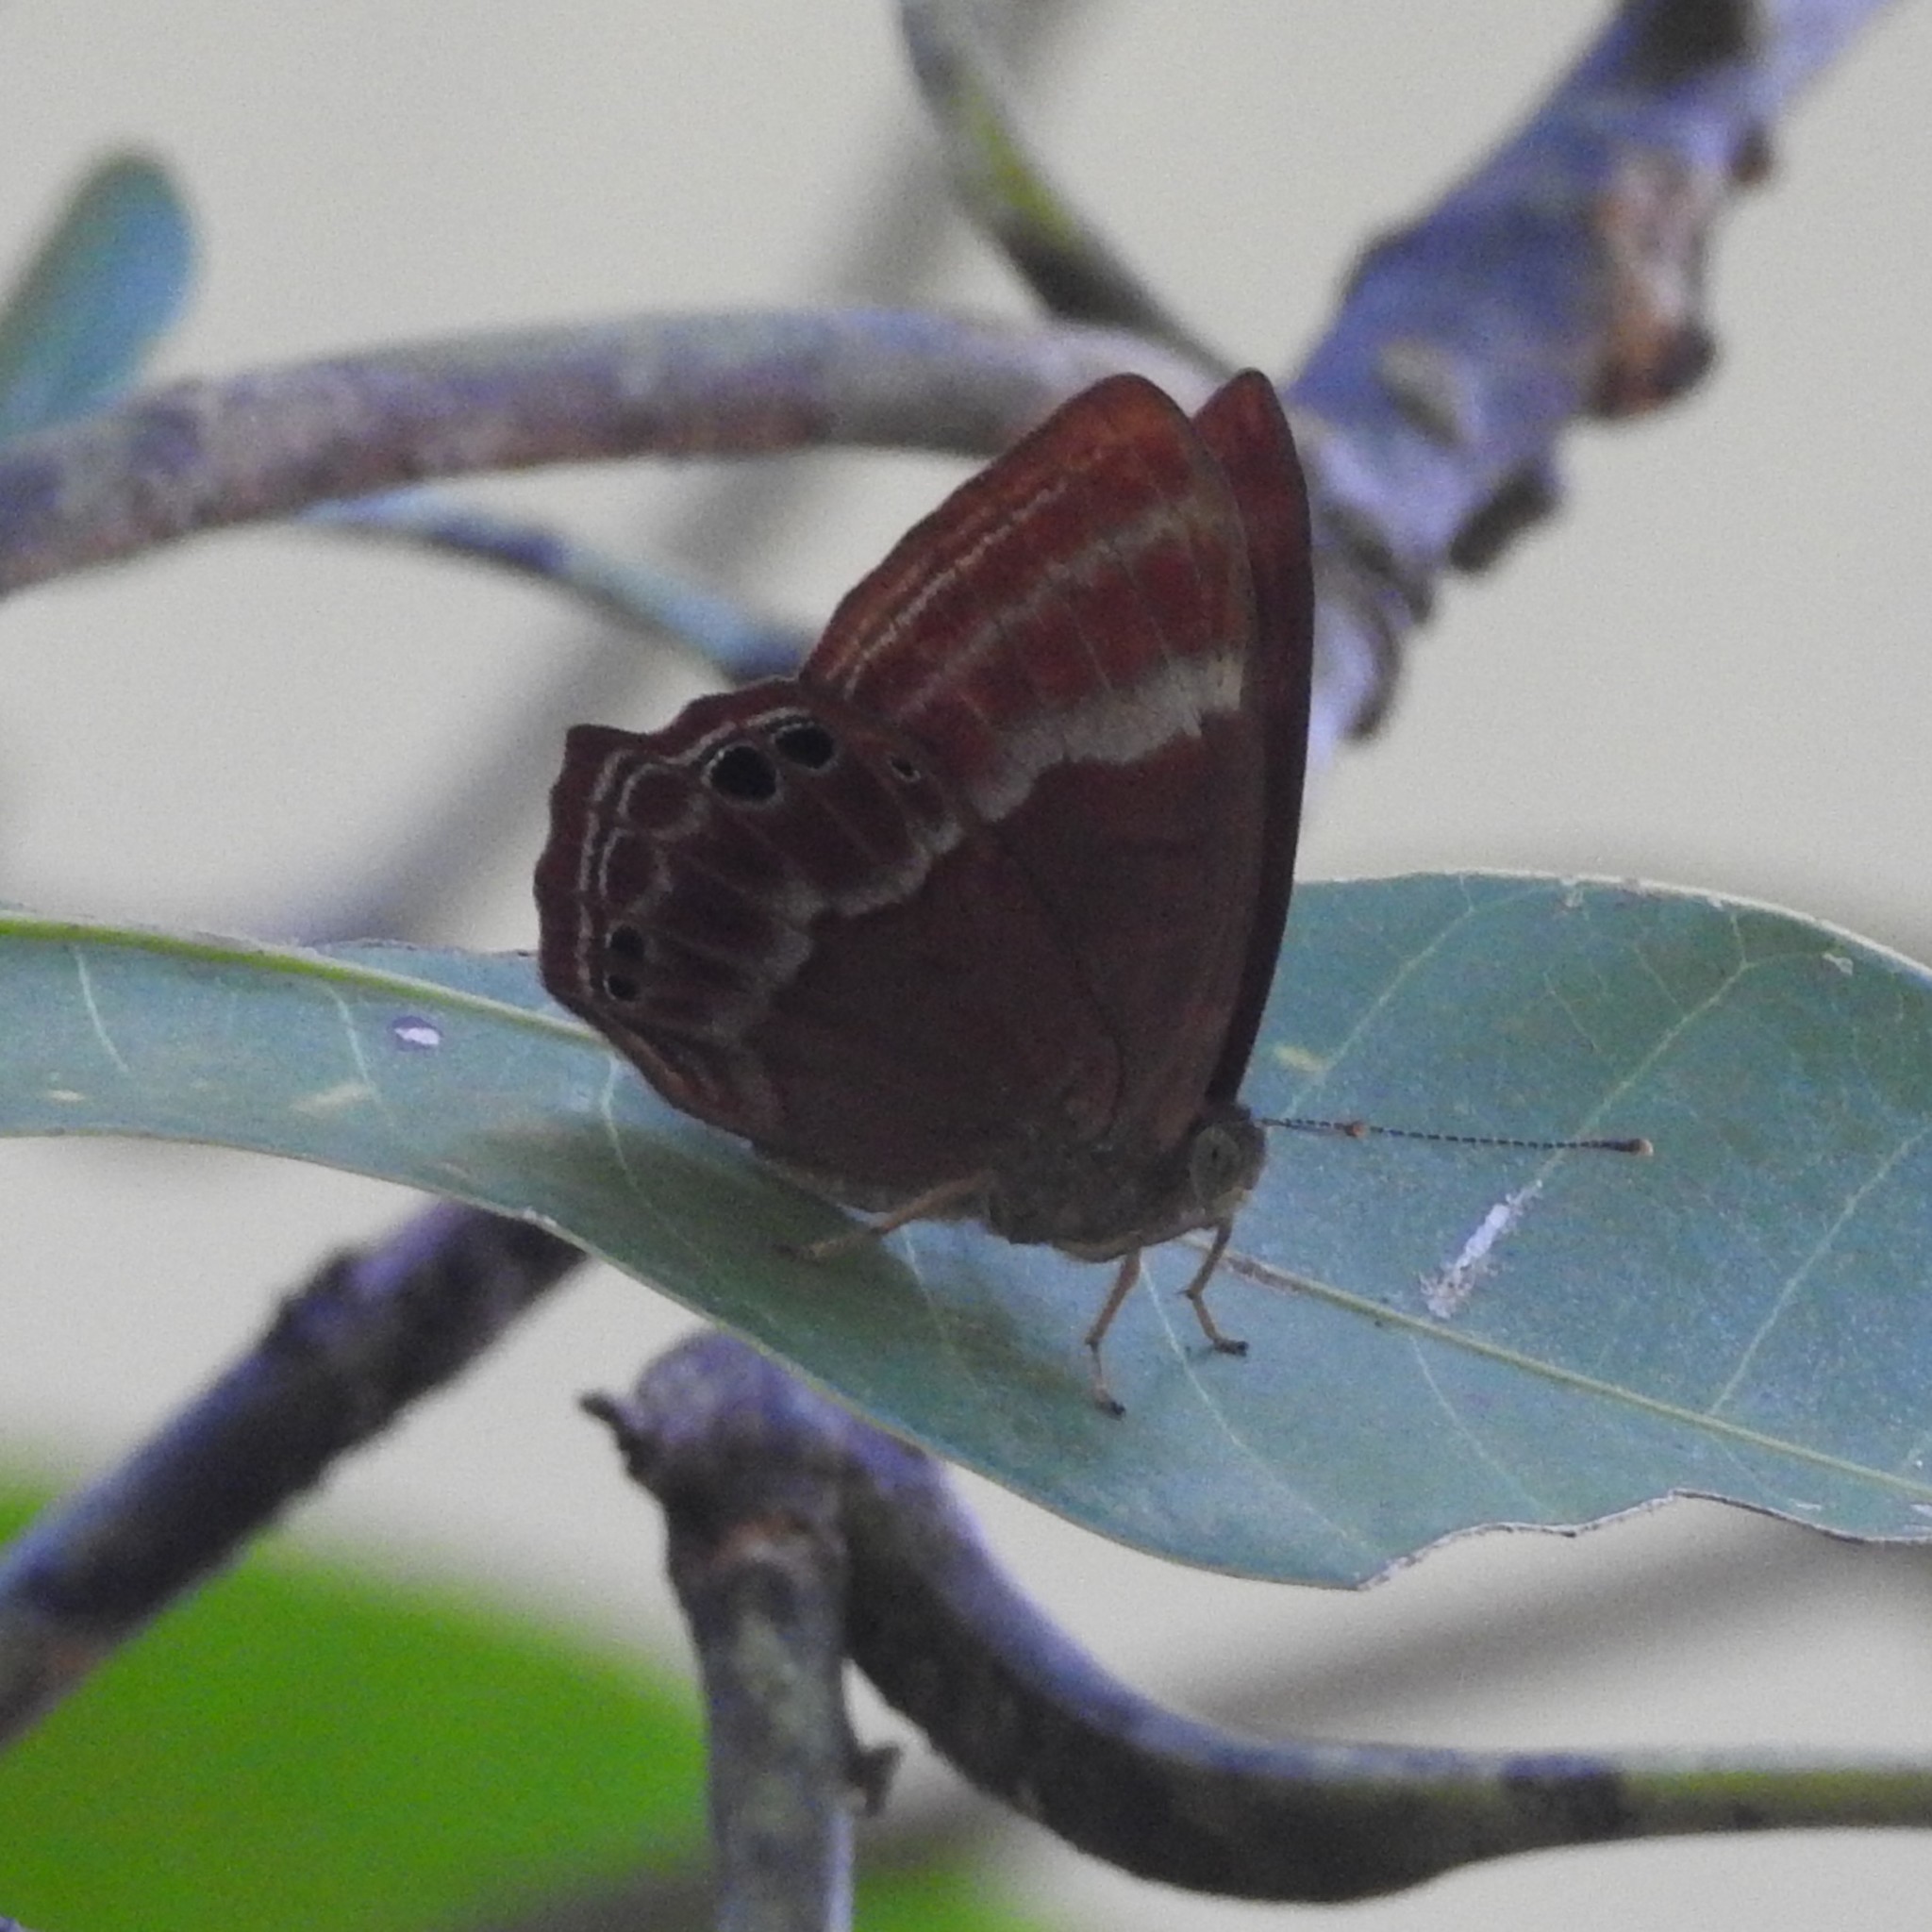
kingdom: Animalia
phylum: Arthropoda
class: Insecta
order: Lepidoptera
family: Lycaenidae
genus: Abisara
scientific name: Abisara echeria
